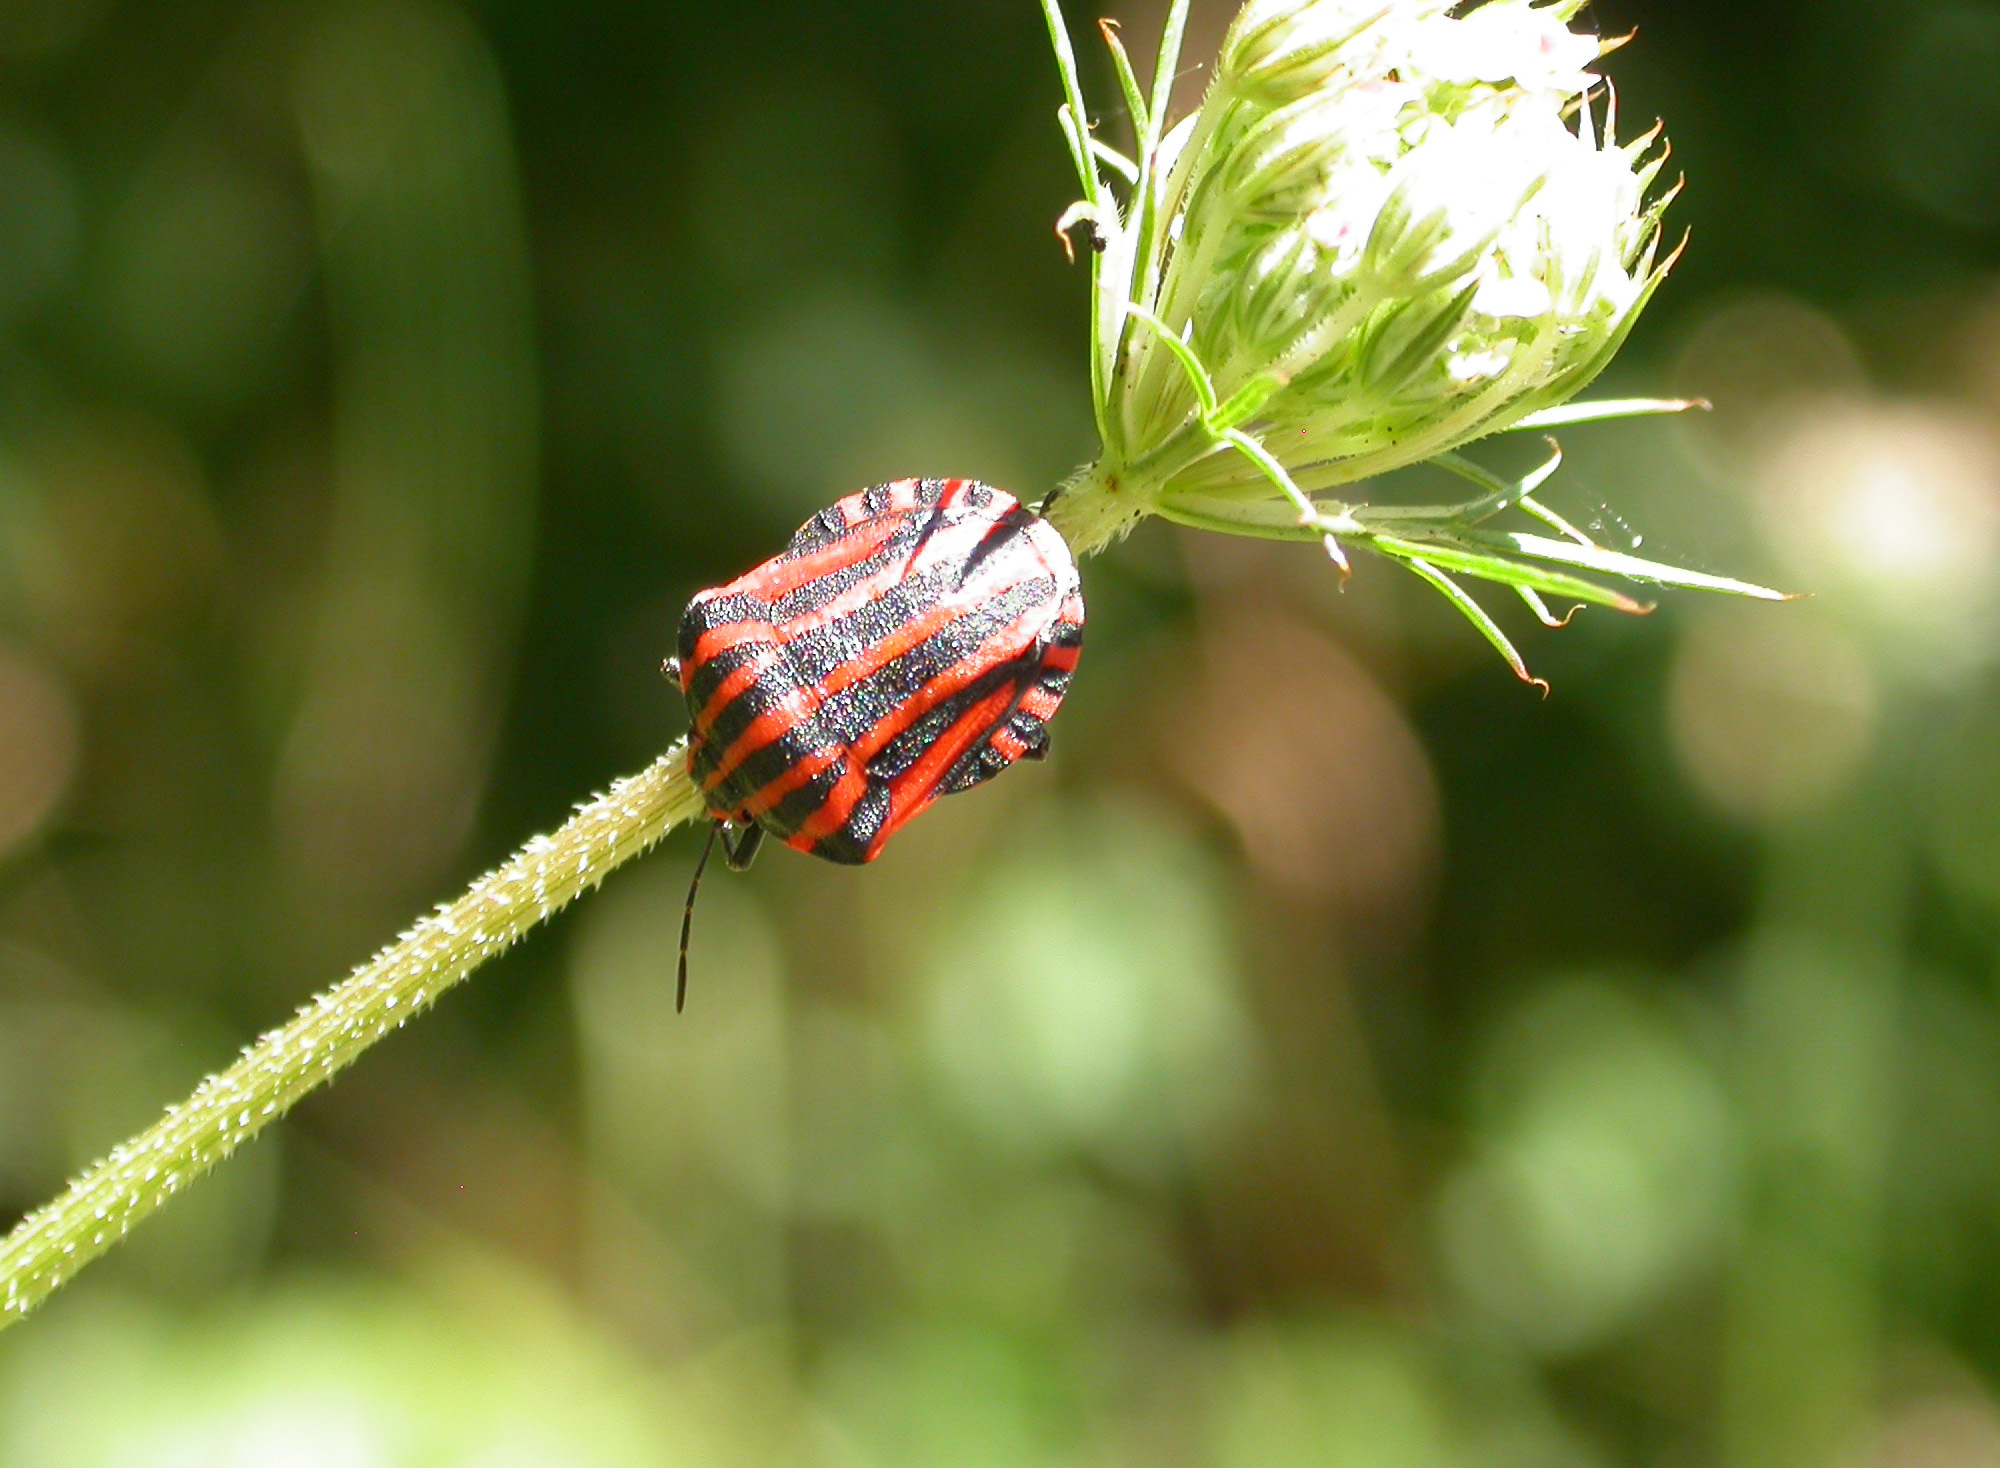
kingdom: Animalia
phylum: Arthropoda
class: Insecta
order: Hemiptera
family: Pentatomidae
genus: Graphosoma
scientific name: Graphosoma italicum
